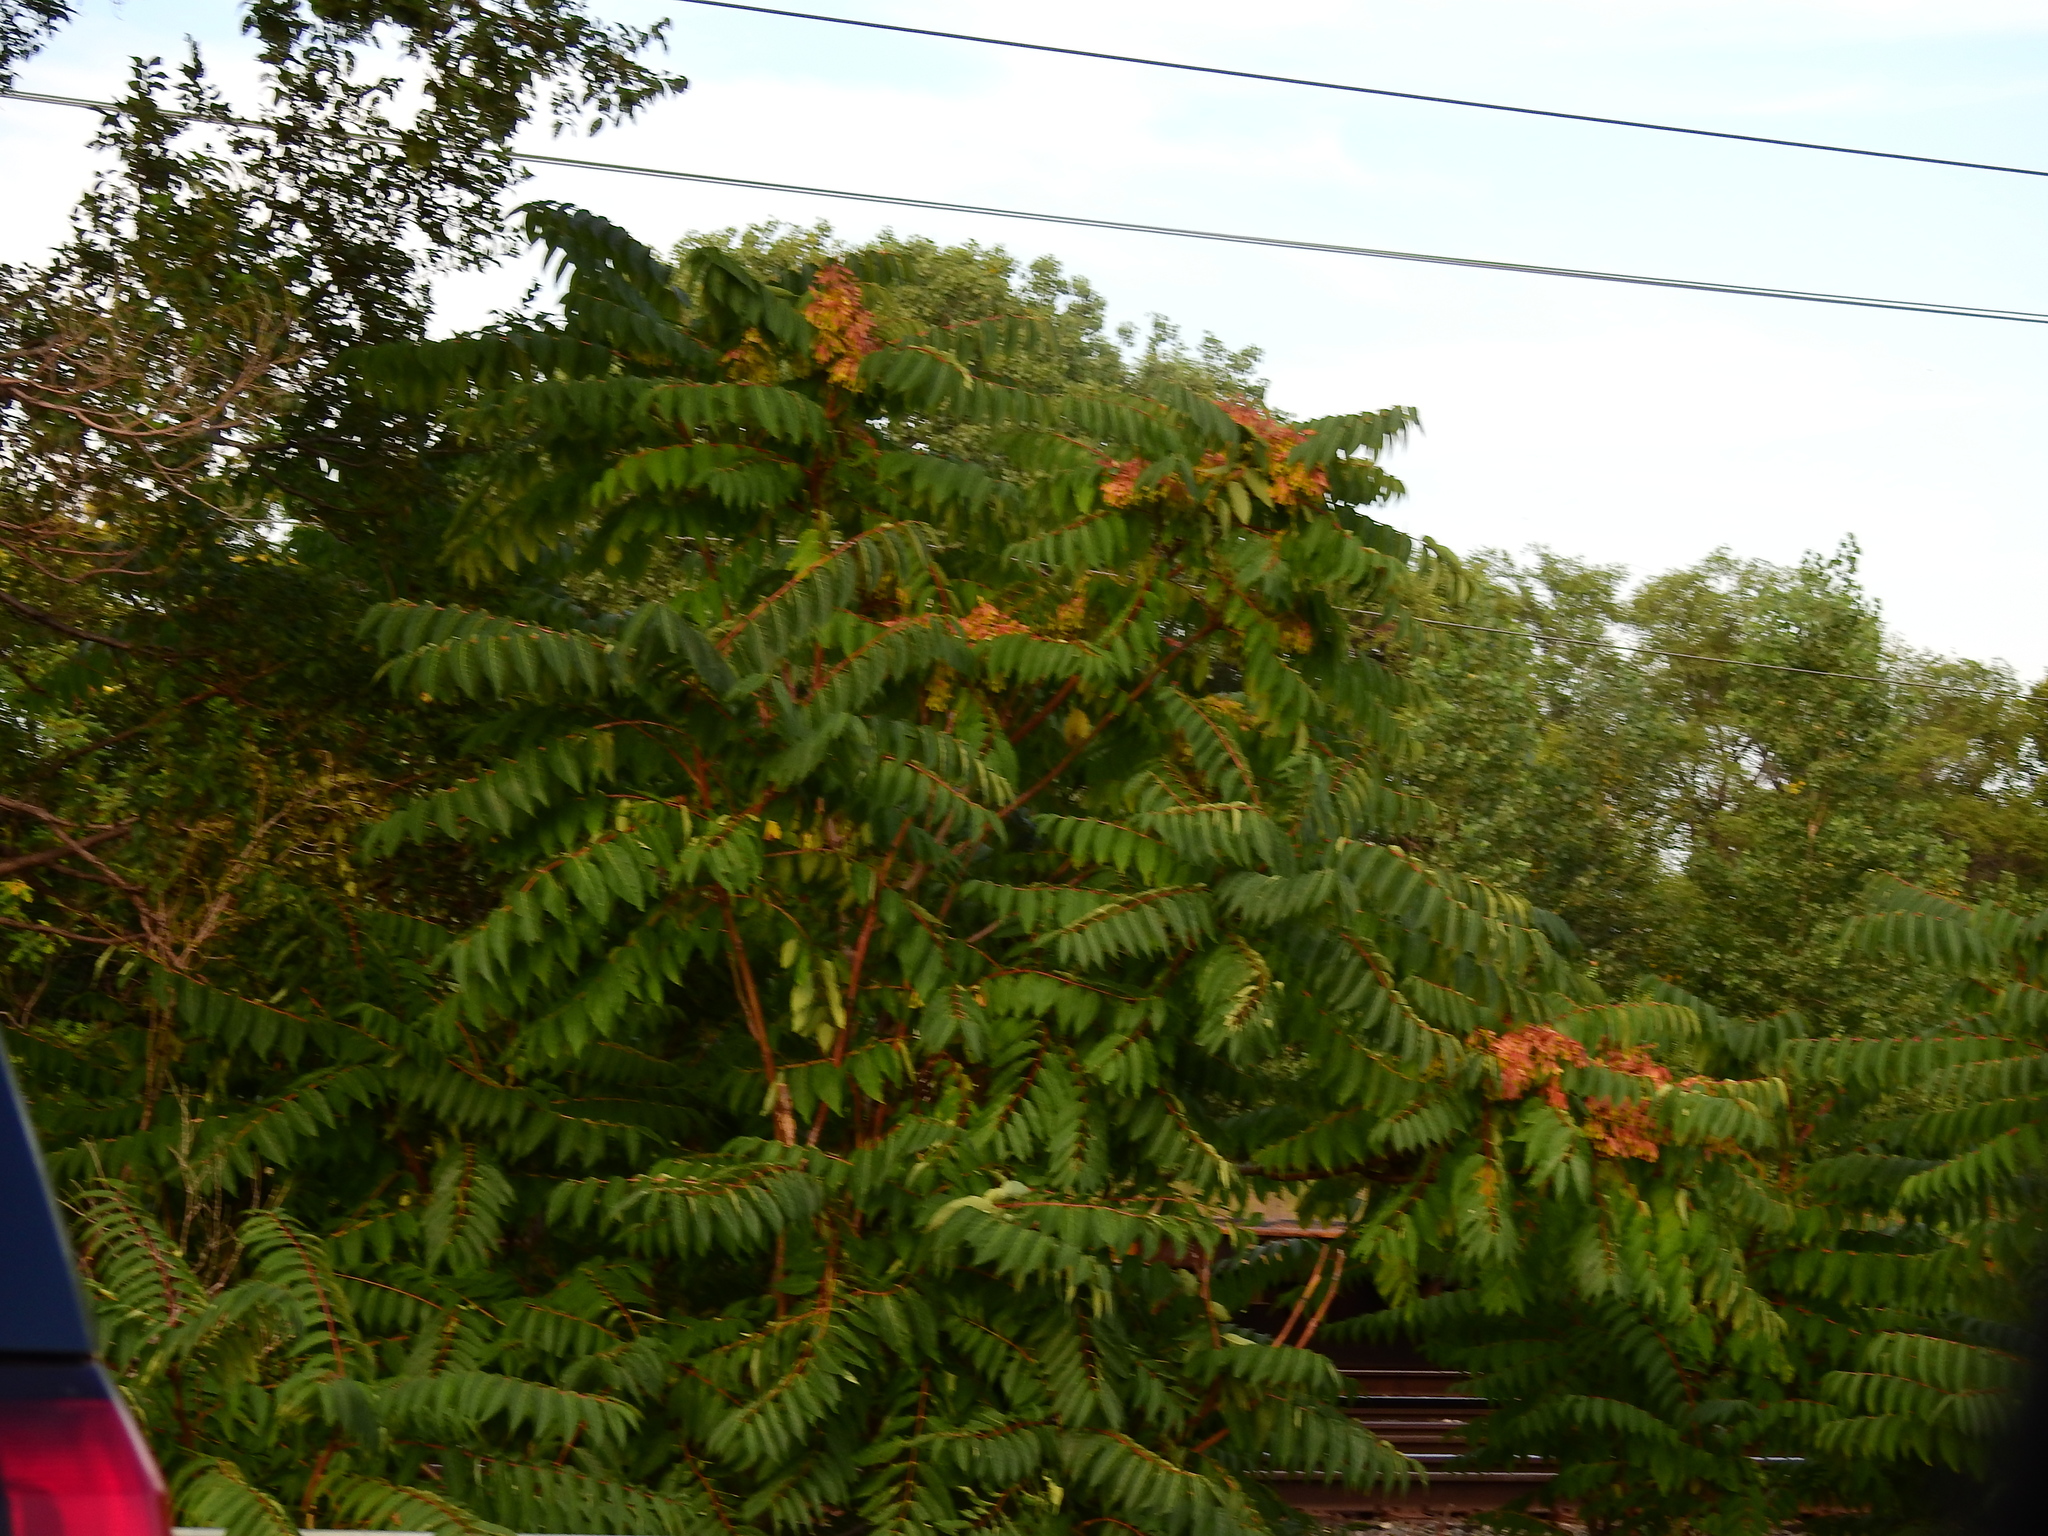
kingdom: Plantae
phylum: Tracheophyta
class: Magnoliopsida
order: Sapindales
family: Simaroubaceae
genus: Ailanthus
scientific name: Ailanthus altissima
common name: Tree-of-heaven
